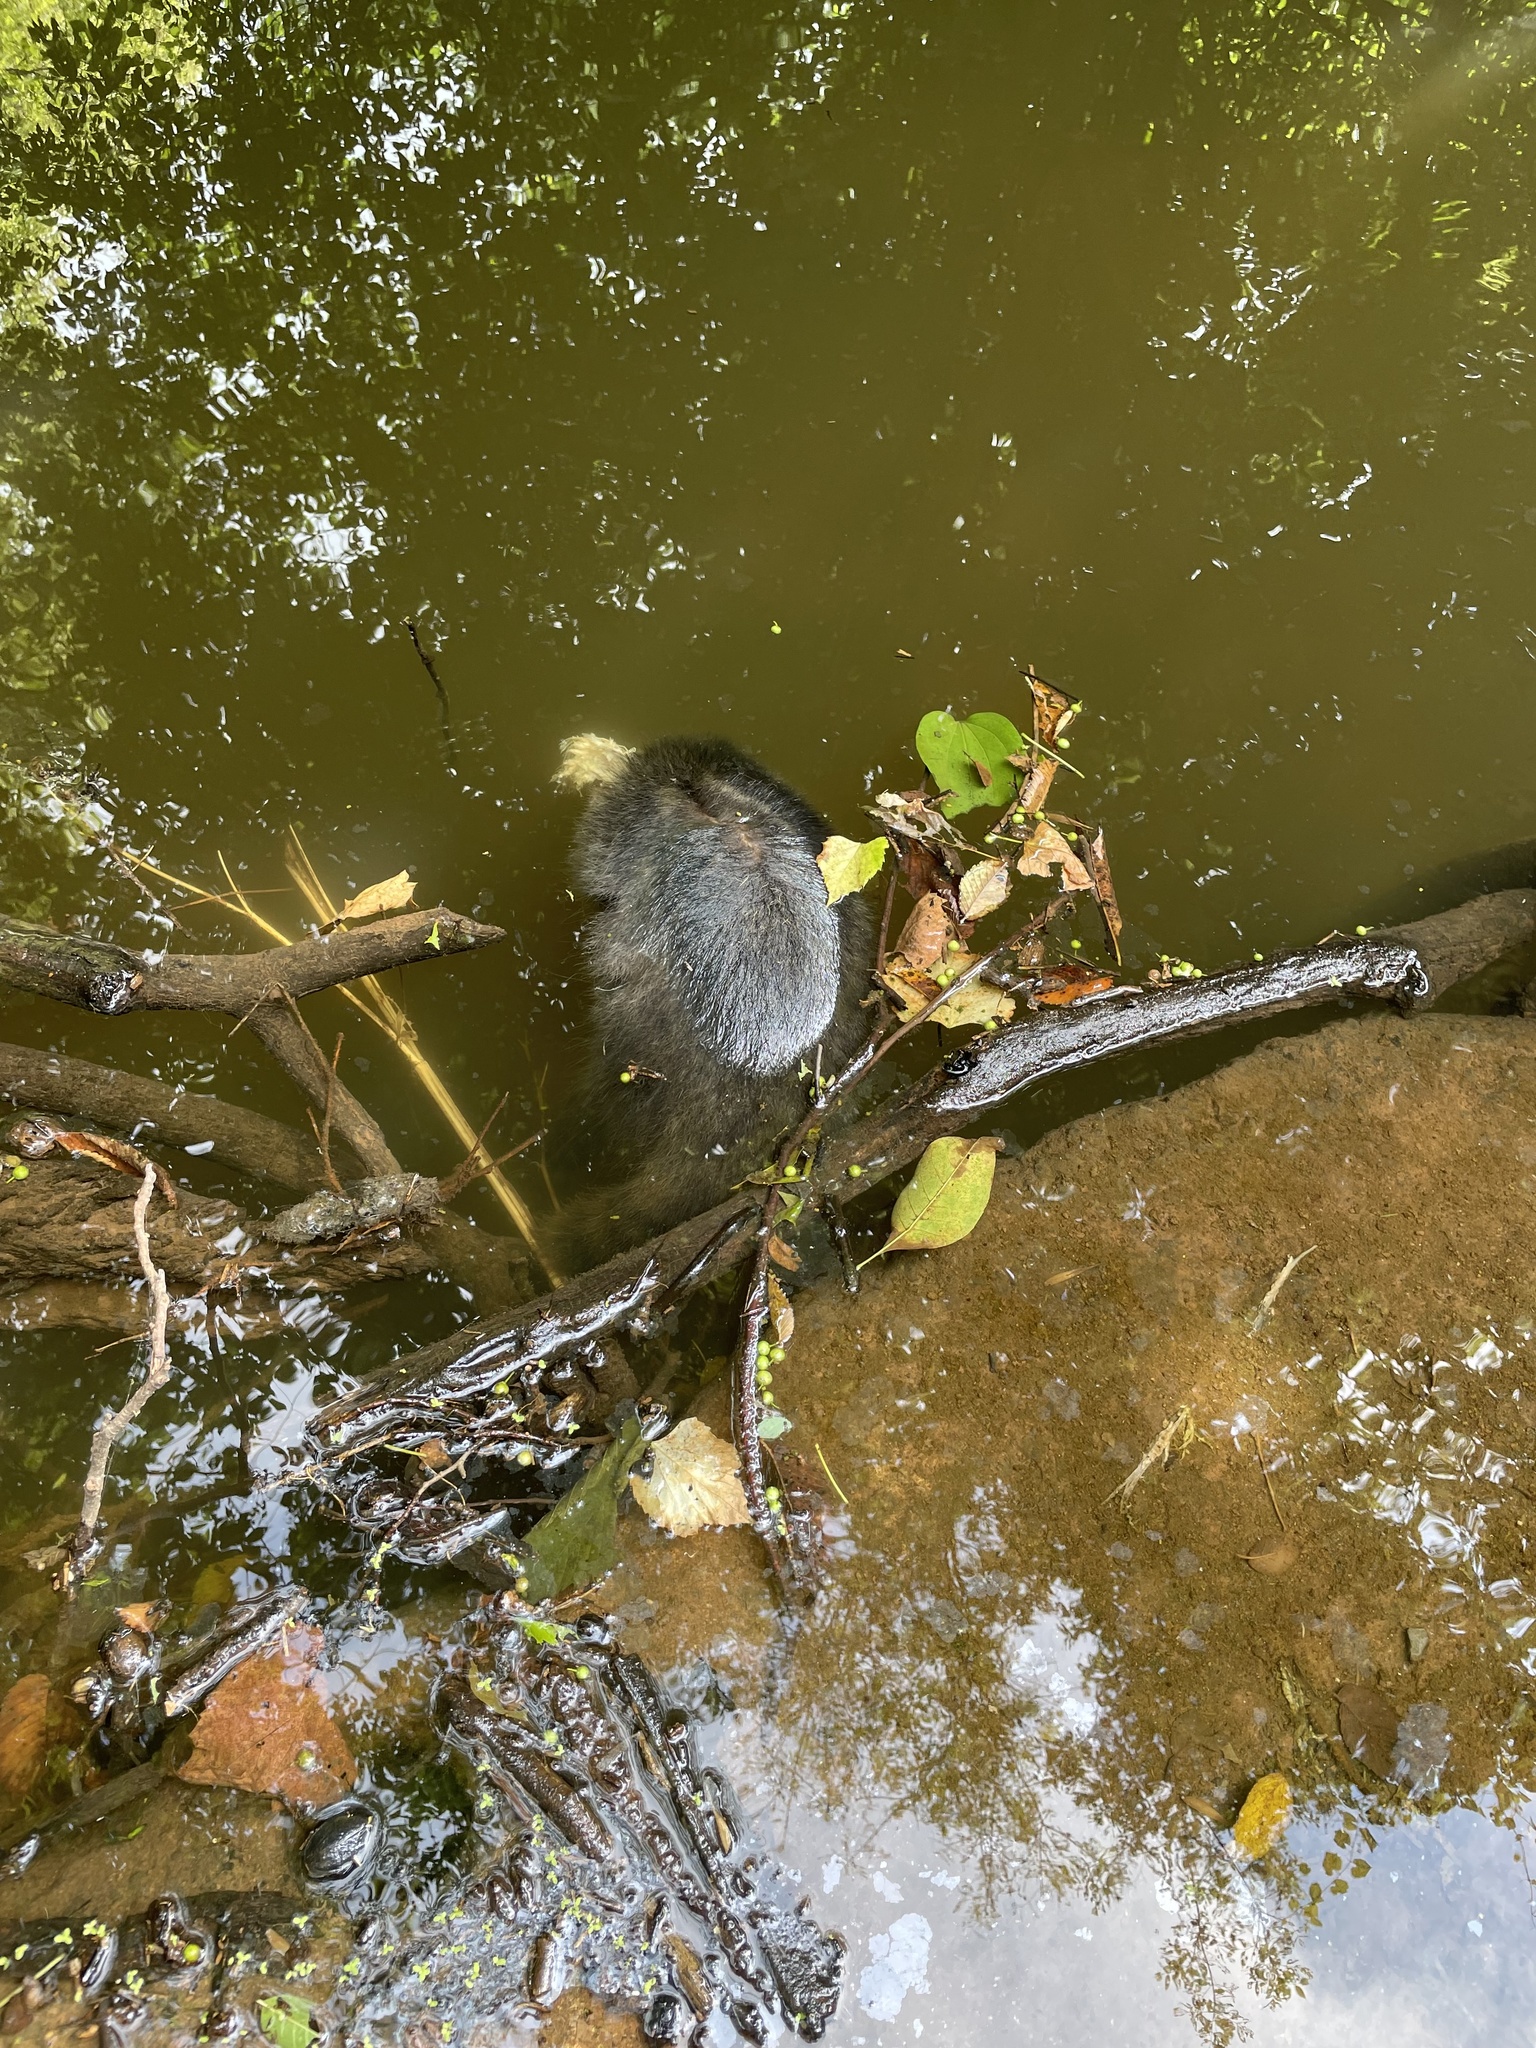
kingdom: Animalia
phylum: Chordata
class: Mammalia
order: Carnivora
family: Procyonidae
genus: Procyon
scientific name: Procyon lotor
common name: Raccoon
